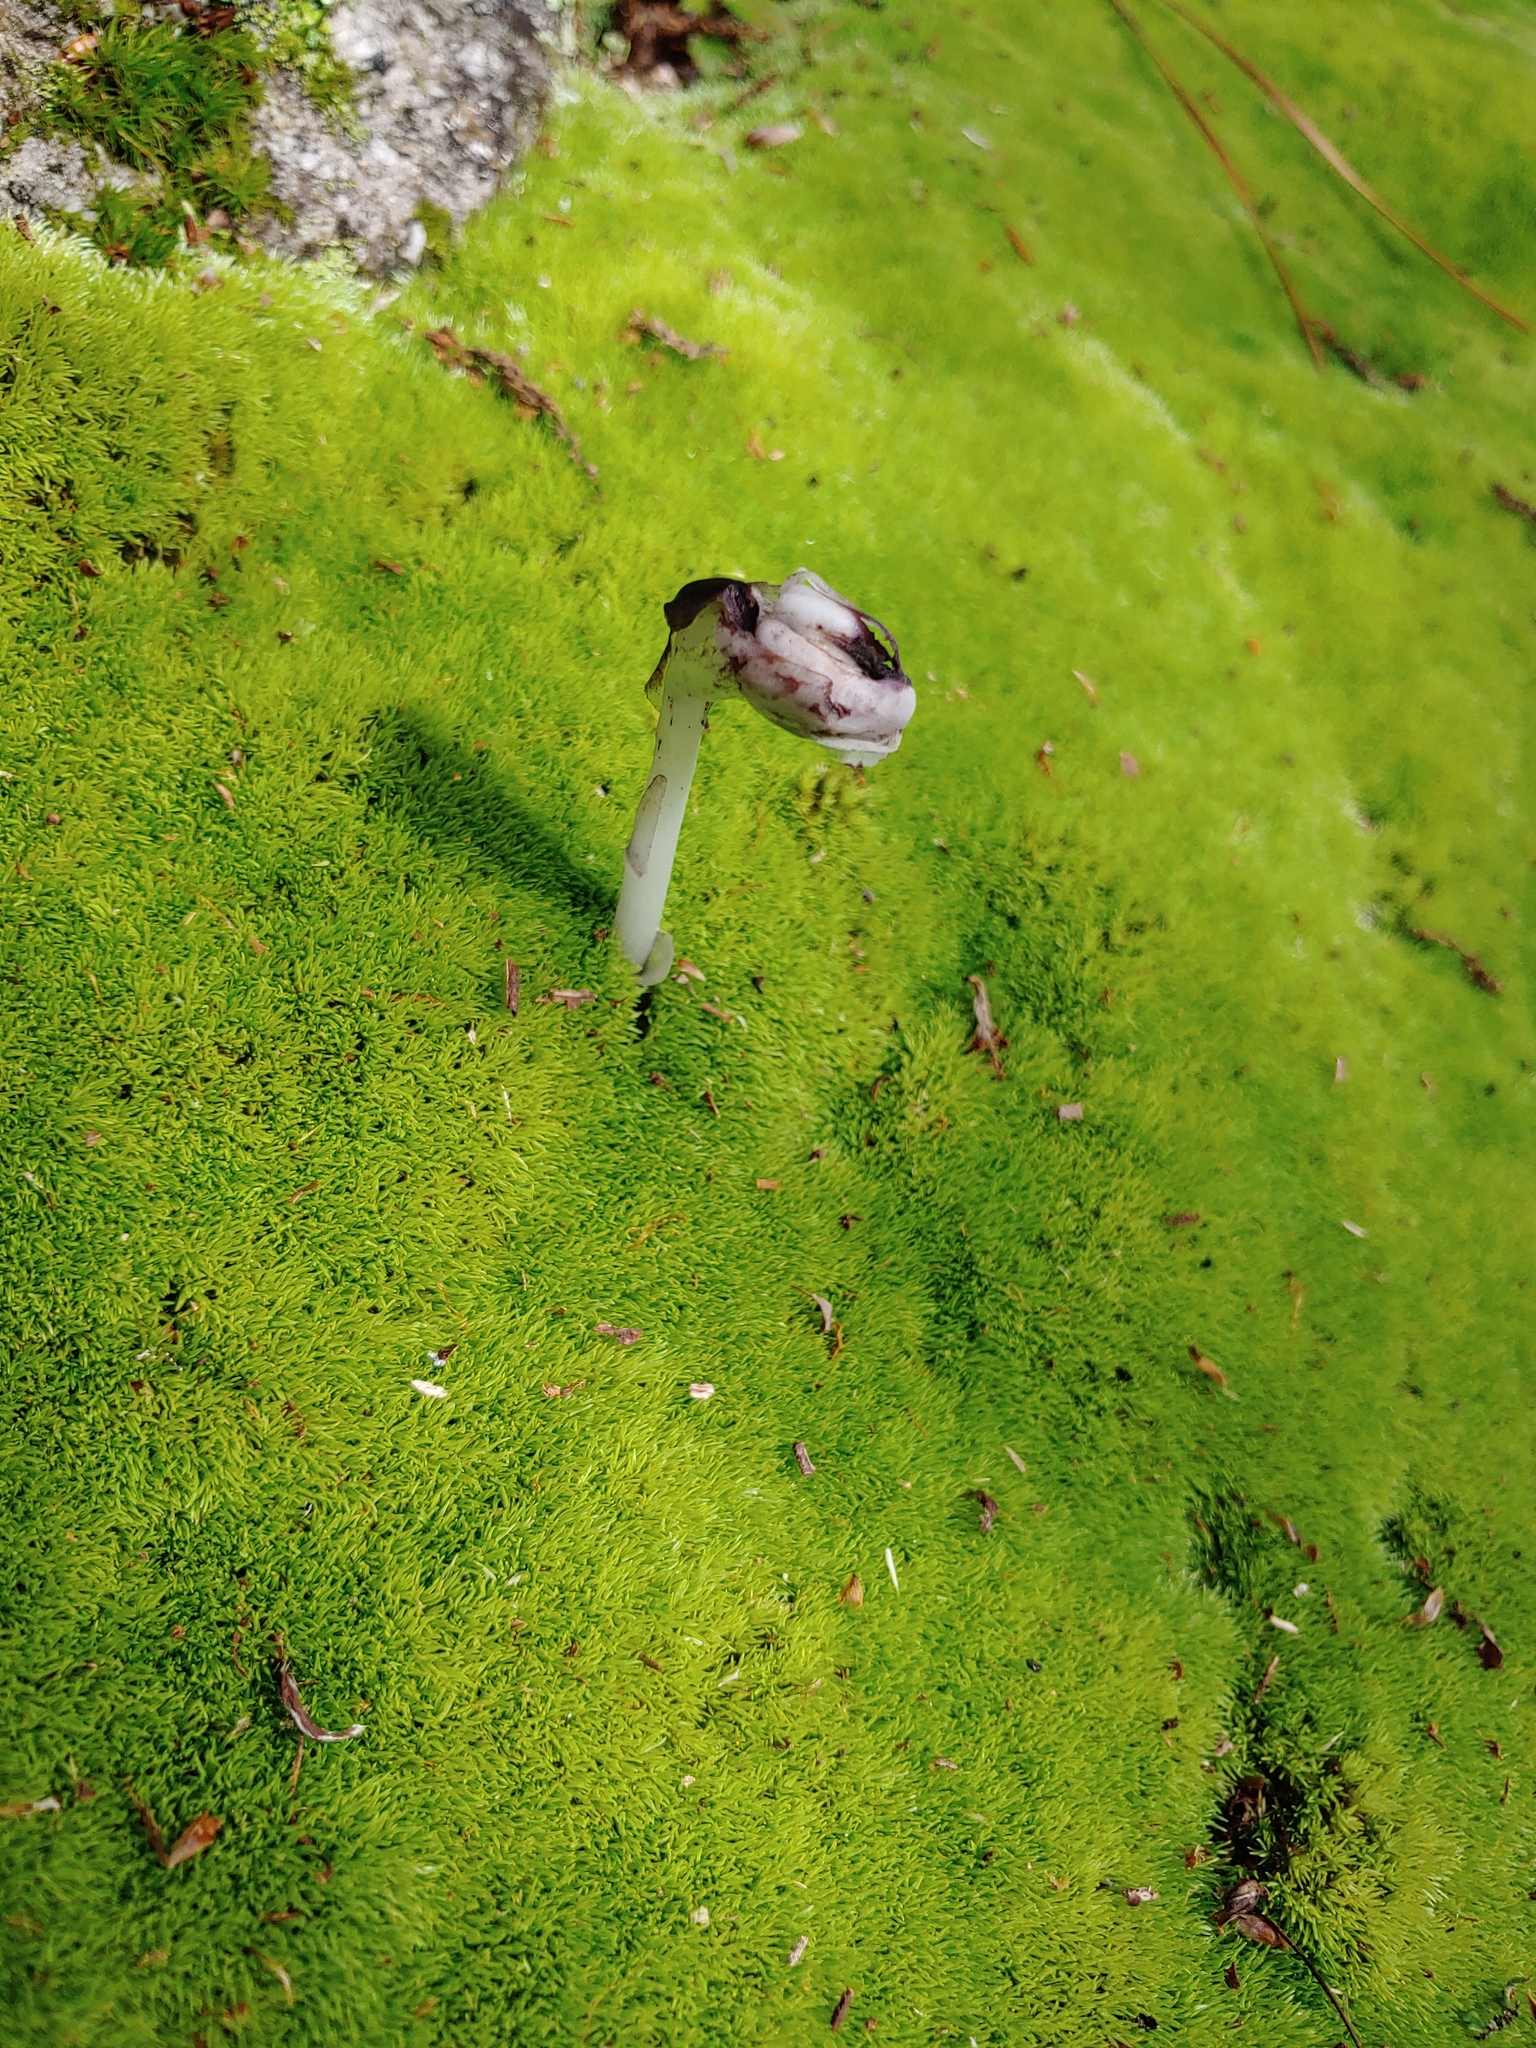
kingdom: Plantae
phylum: Tracheophyta
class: Magnoliopsida
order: Ericales
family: Ericaceae
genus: Monotropa
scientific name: Monotropa uniflora
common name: Convulsion root
